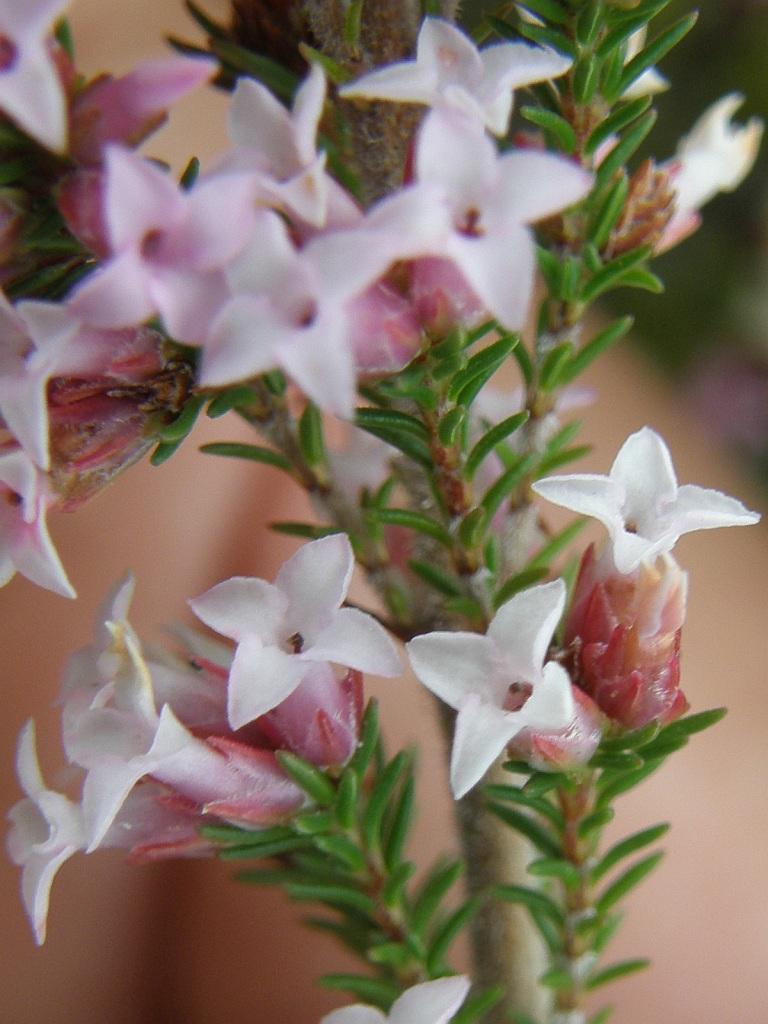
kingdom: Plantae
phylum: Tracheophyta
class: Magnoliopsida
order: Ericales
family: Ericaceae
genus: Erica
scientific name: Erica
